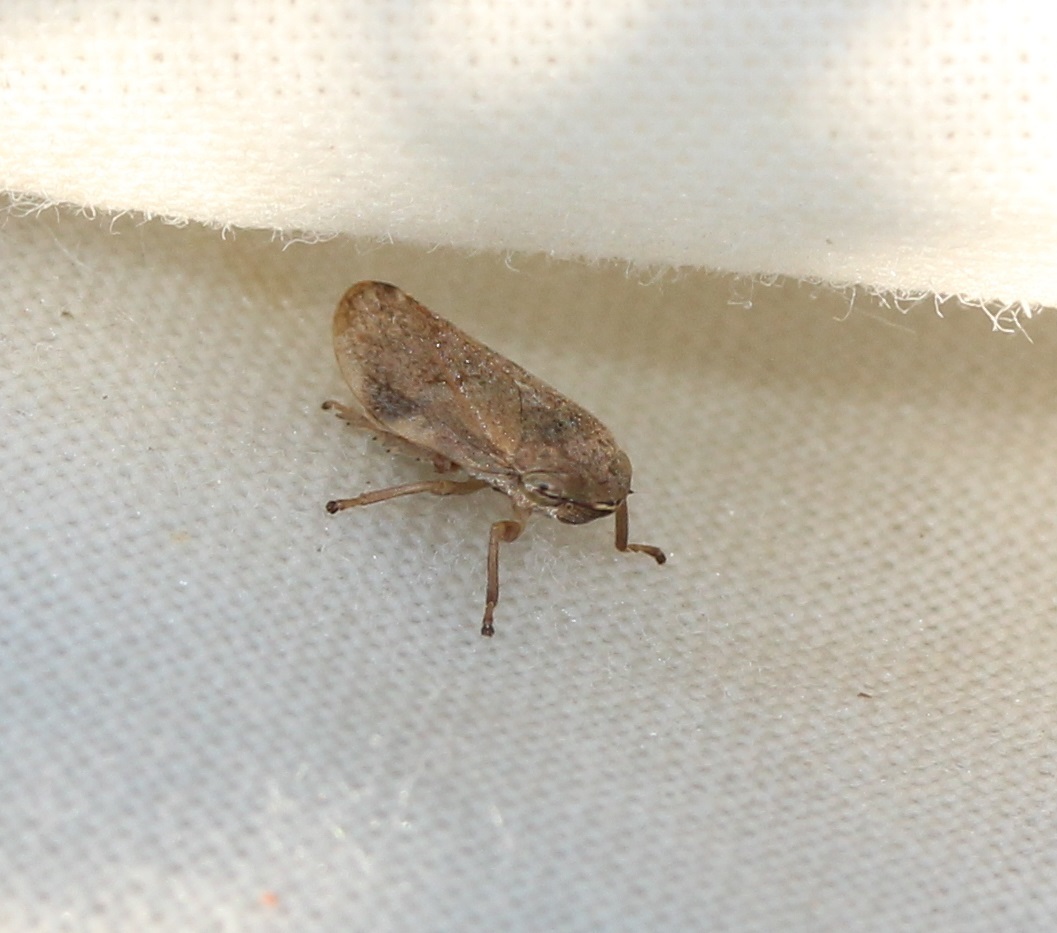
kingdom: Animalia
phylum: Arthropoda
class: Insecta
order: Hemiptera
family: Aphrophoridae
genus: Philaenus
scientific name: Philaenus spumarius
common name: Meadow spittlebug
